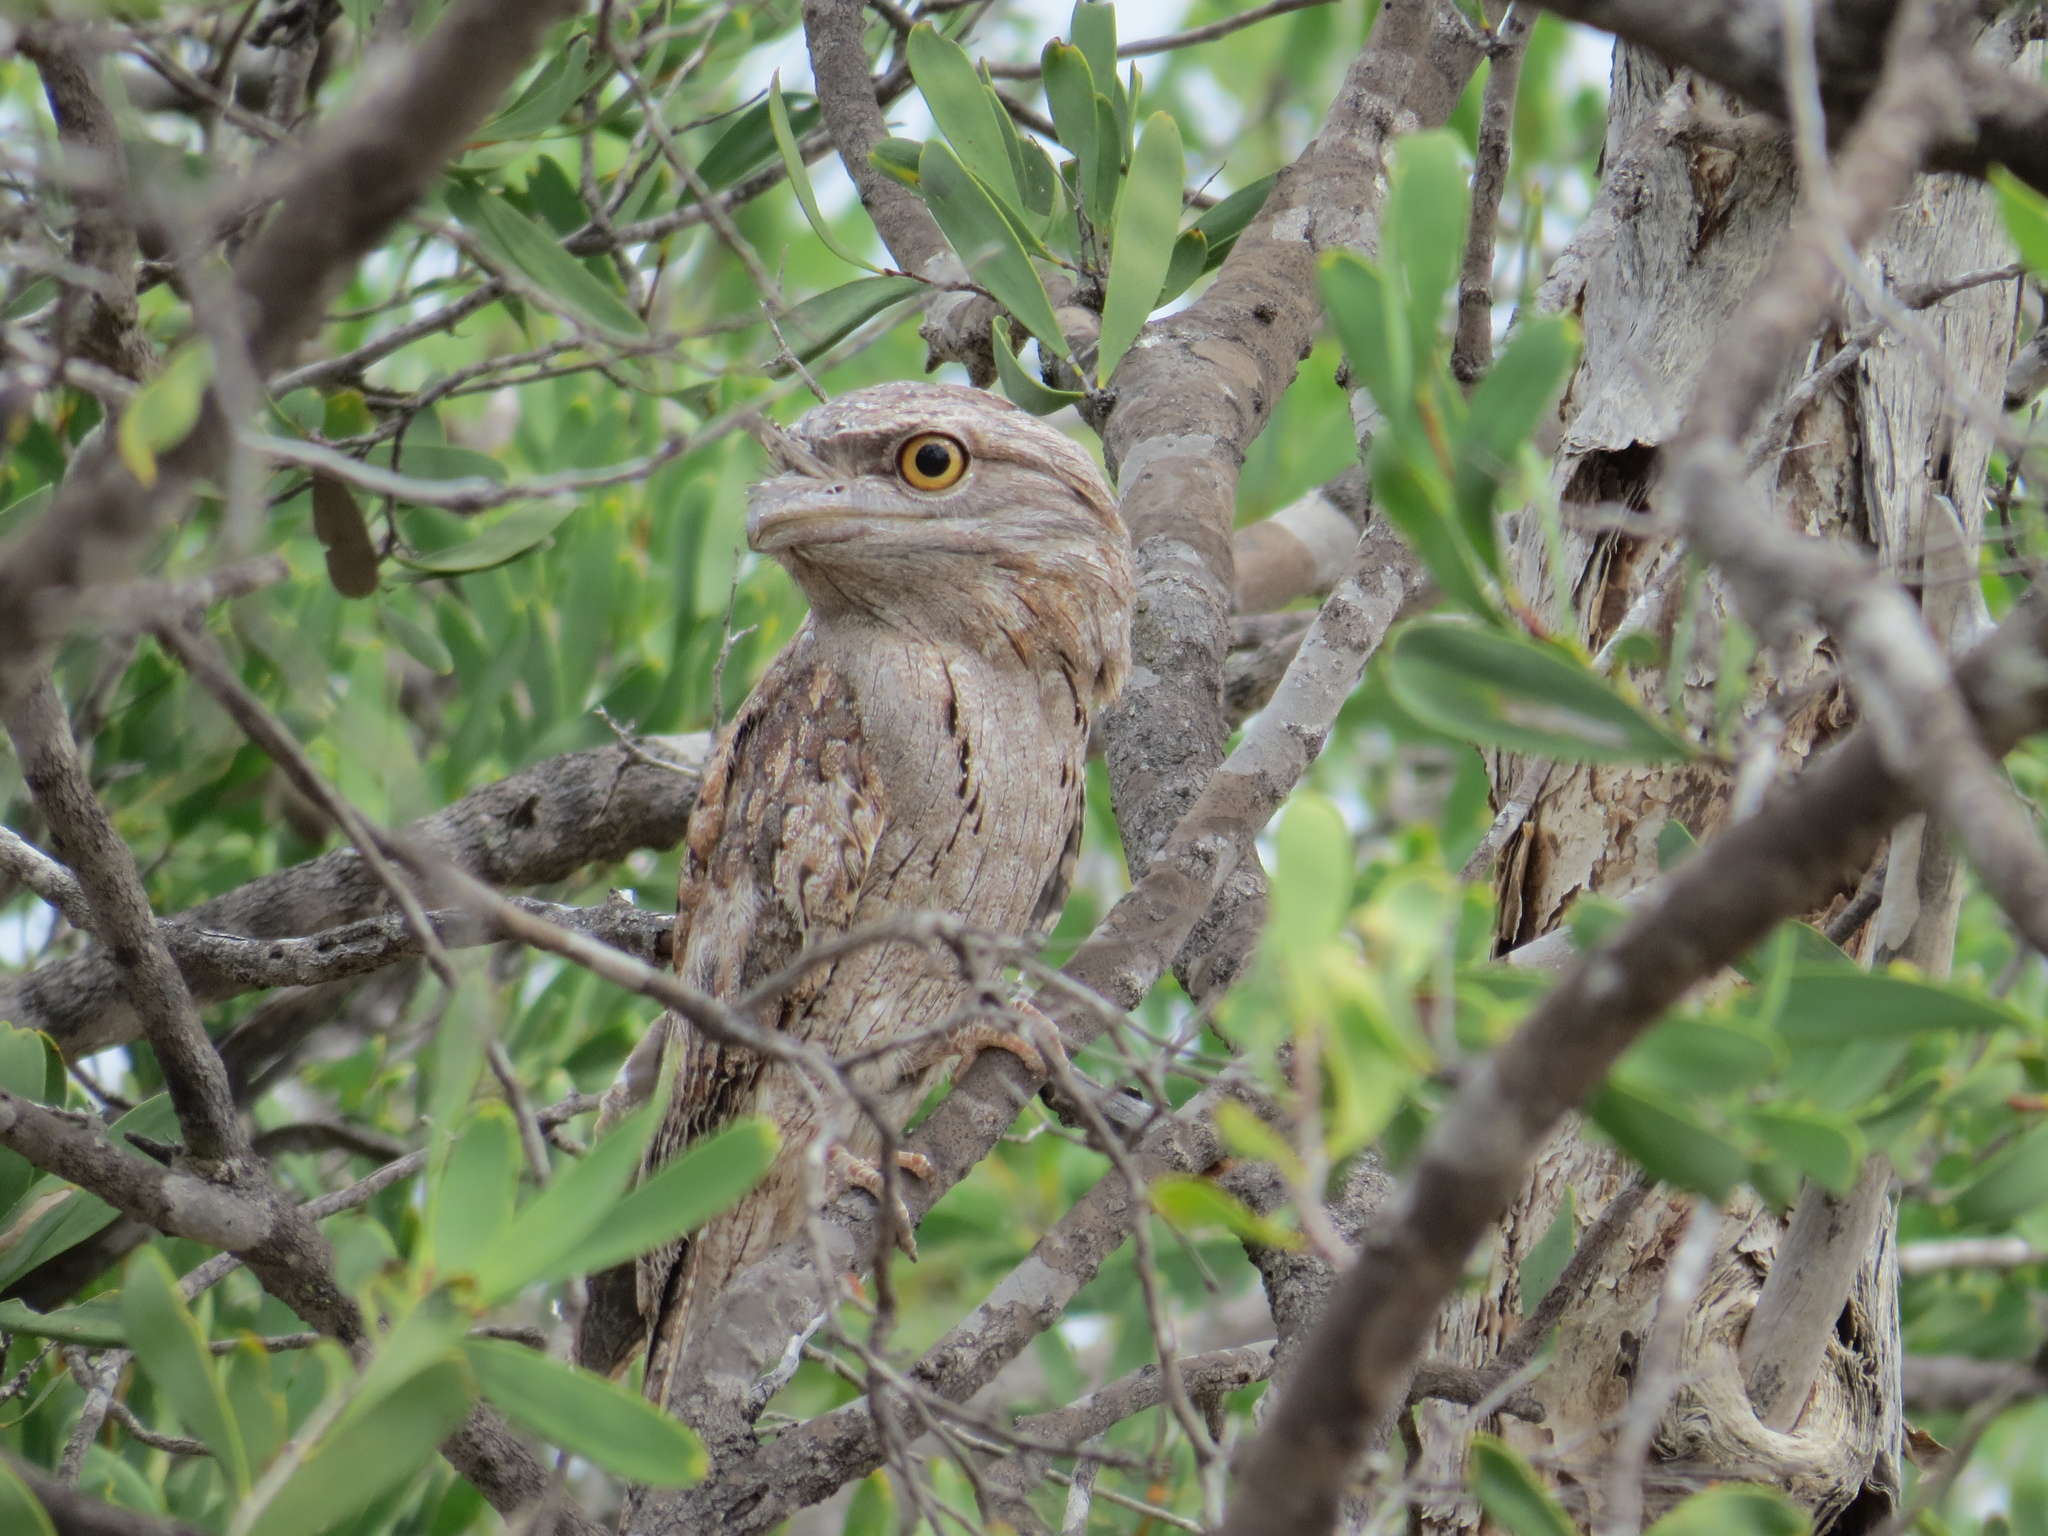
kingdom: Animalia
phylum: Chordata
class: Aves
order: Caprimulgiformes
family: Podargidae
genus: Podargus
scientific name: Podargus strigoides
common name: Tawny frogmouth
